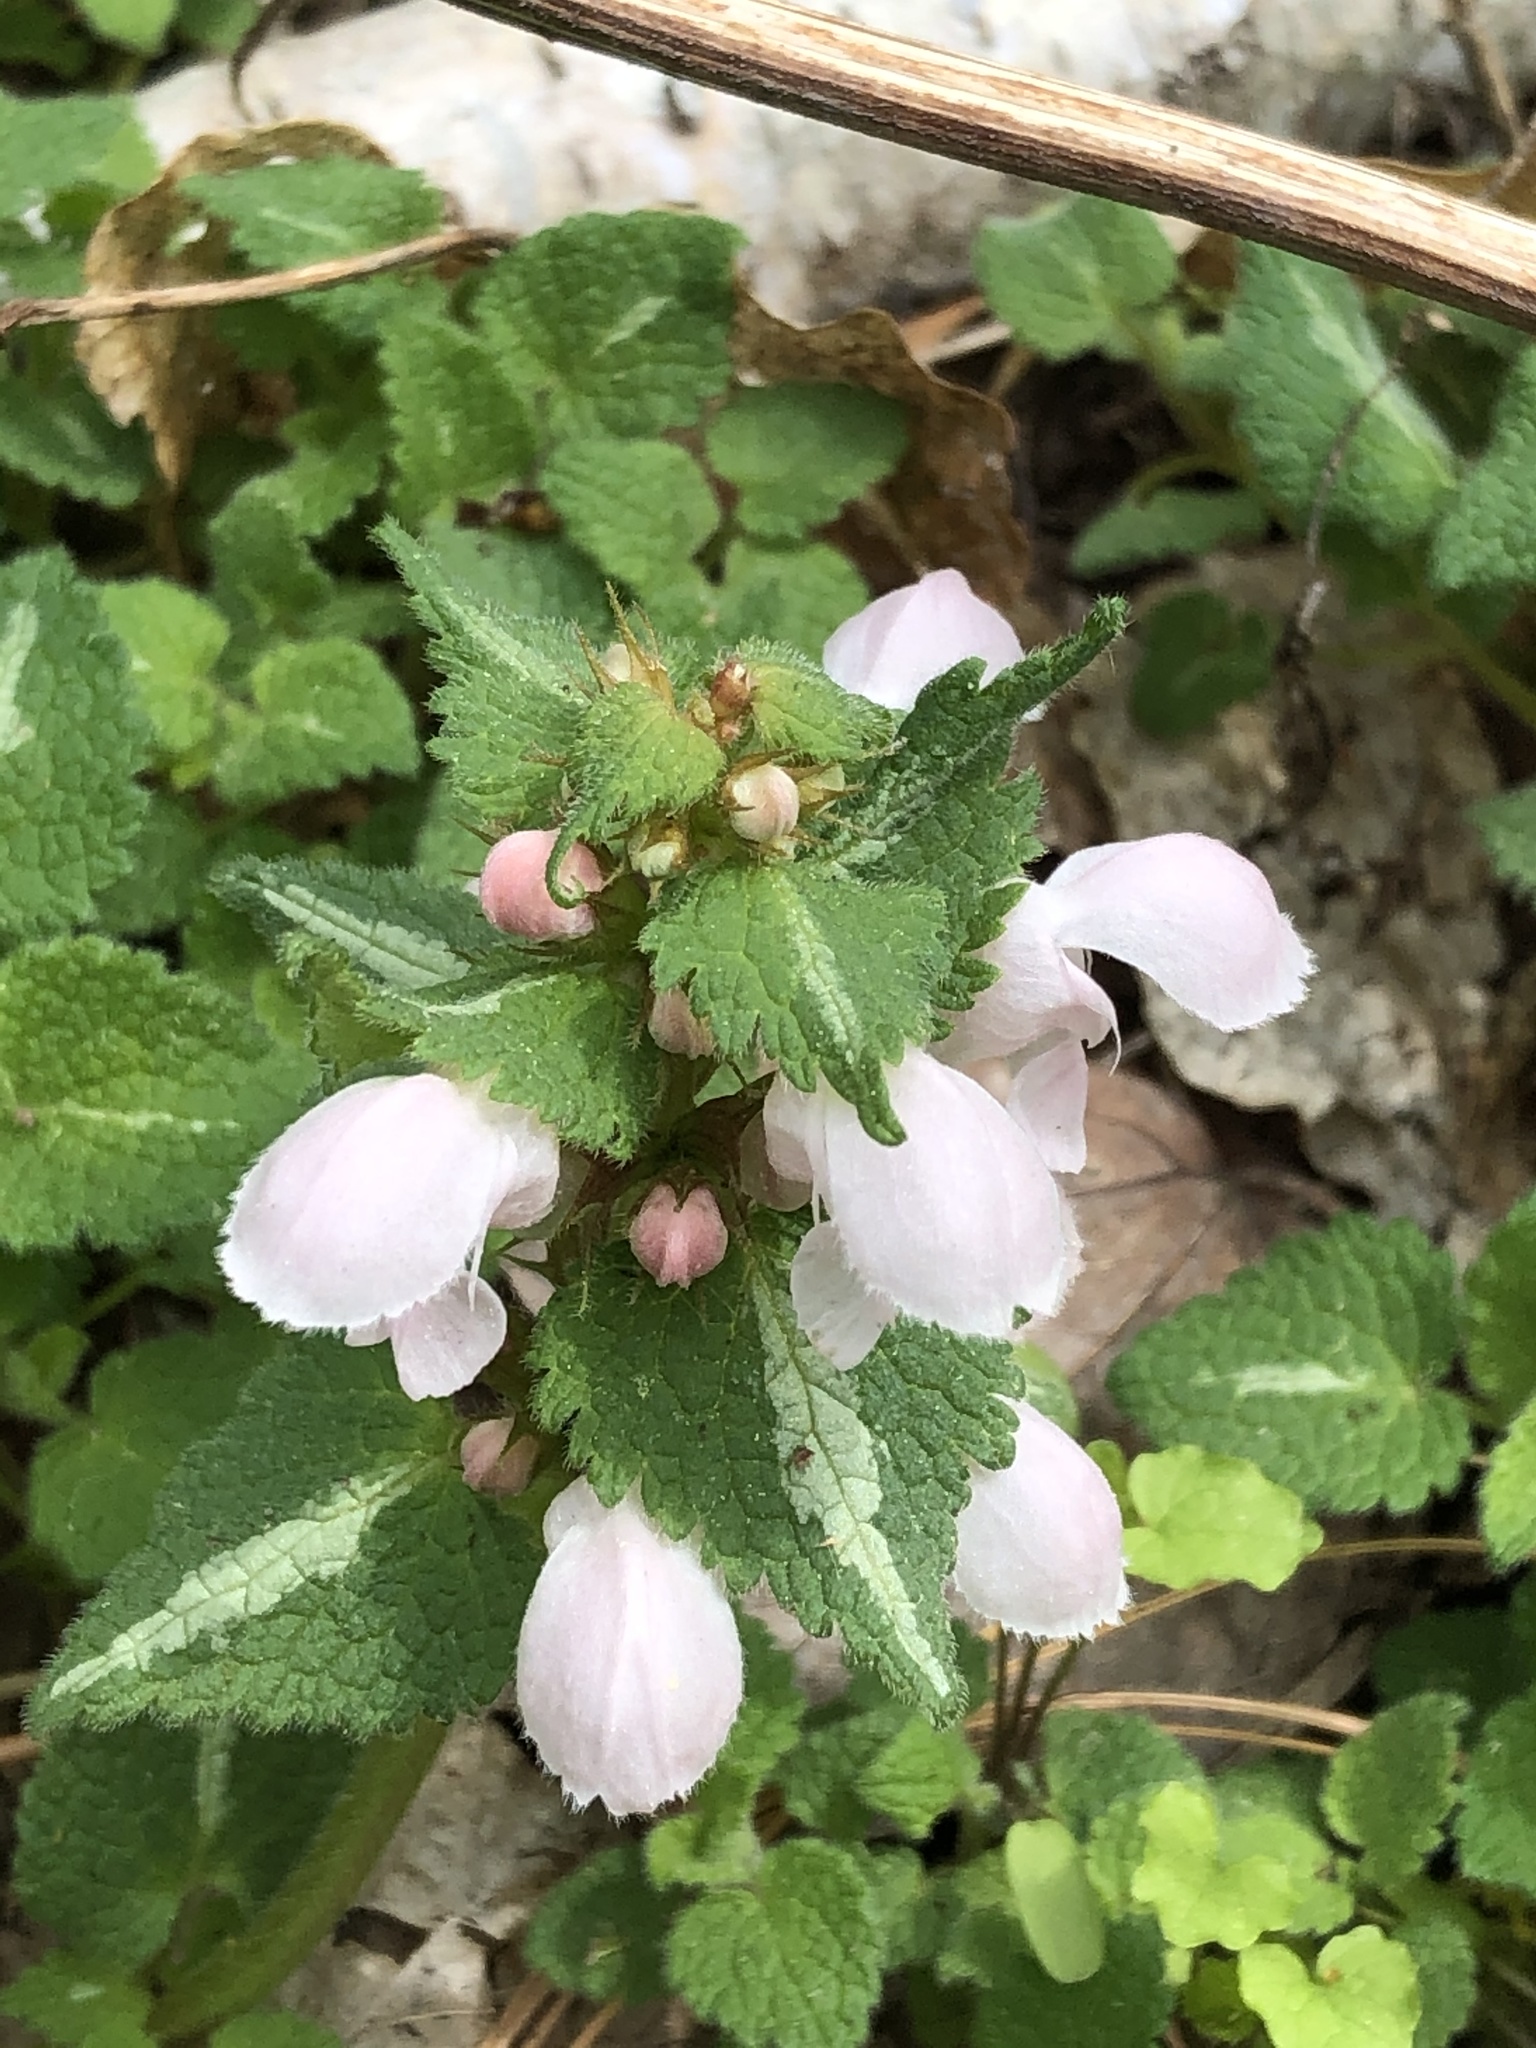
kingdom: Plantae
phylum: Tracheophyta
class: Magnoliopsida
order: Lamiales
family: Lamiaceae
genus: Lamium
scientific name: Lamium maculatum
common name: Spotted dead-nettle
